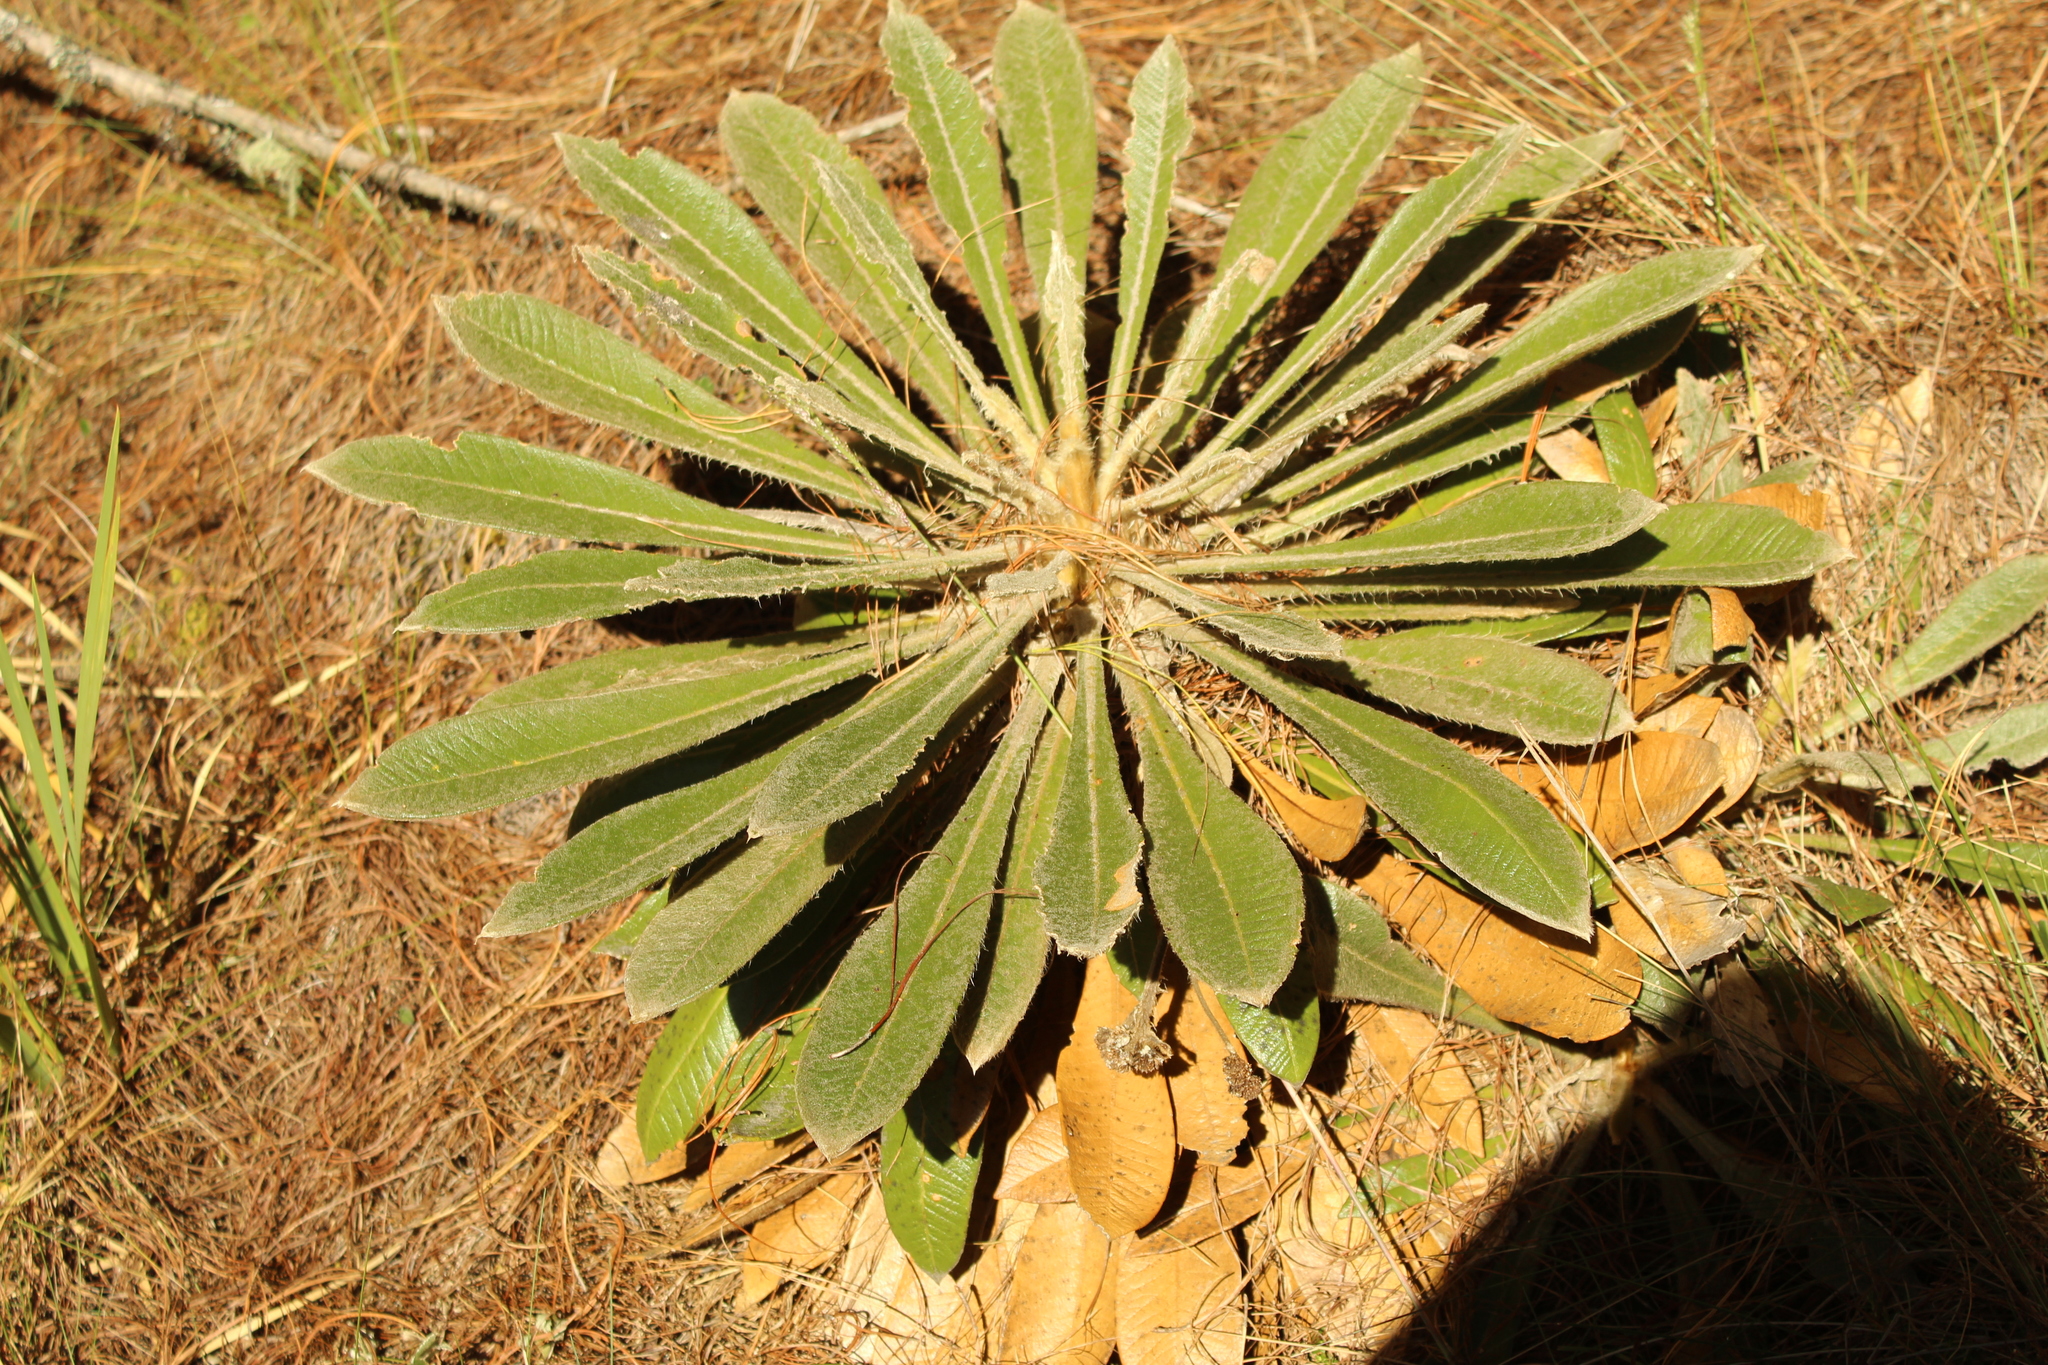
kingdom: Plantae
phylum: Tracheophyta
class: Magnoliopsida
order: Asterales
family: Asteraceae
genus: Espeletia
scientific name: Espeletia guacharaca
